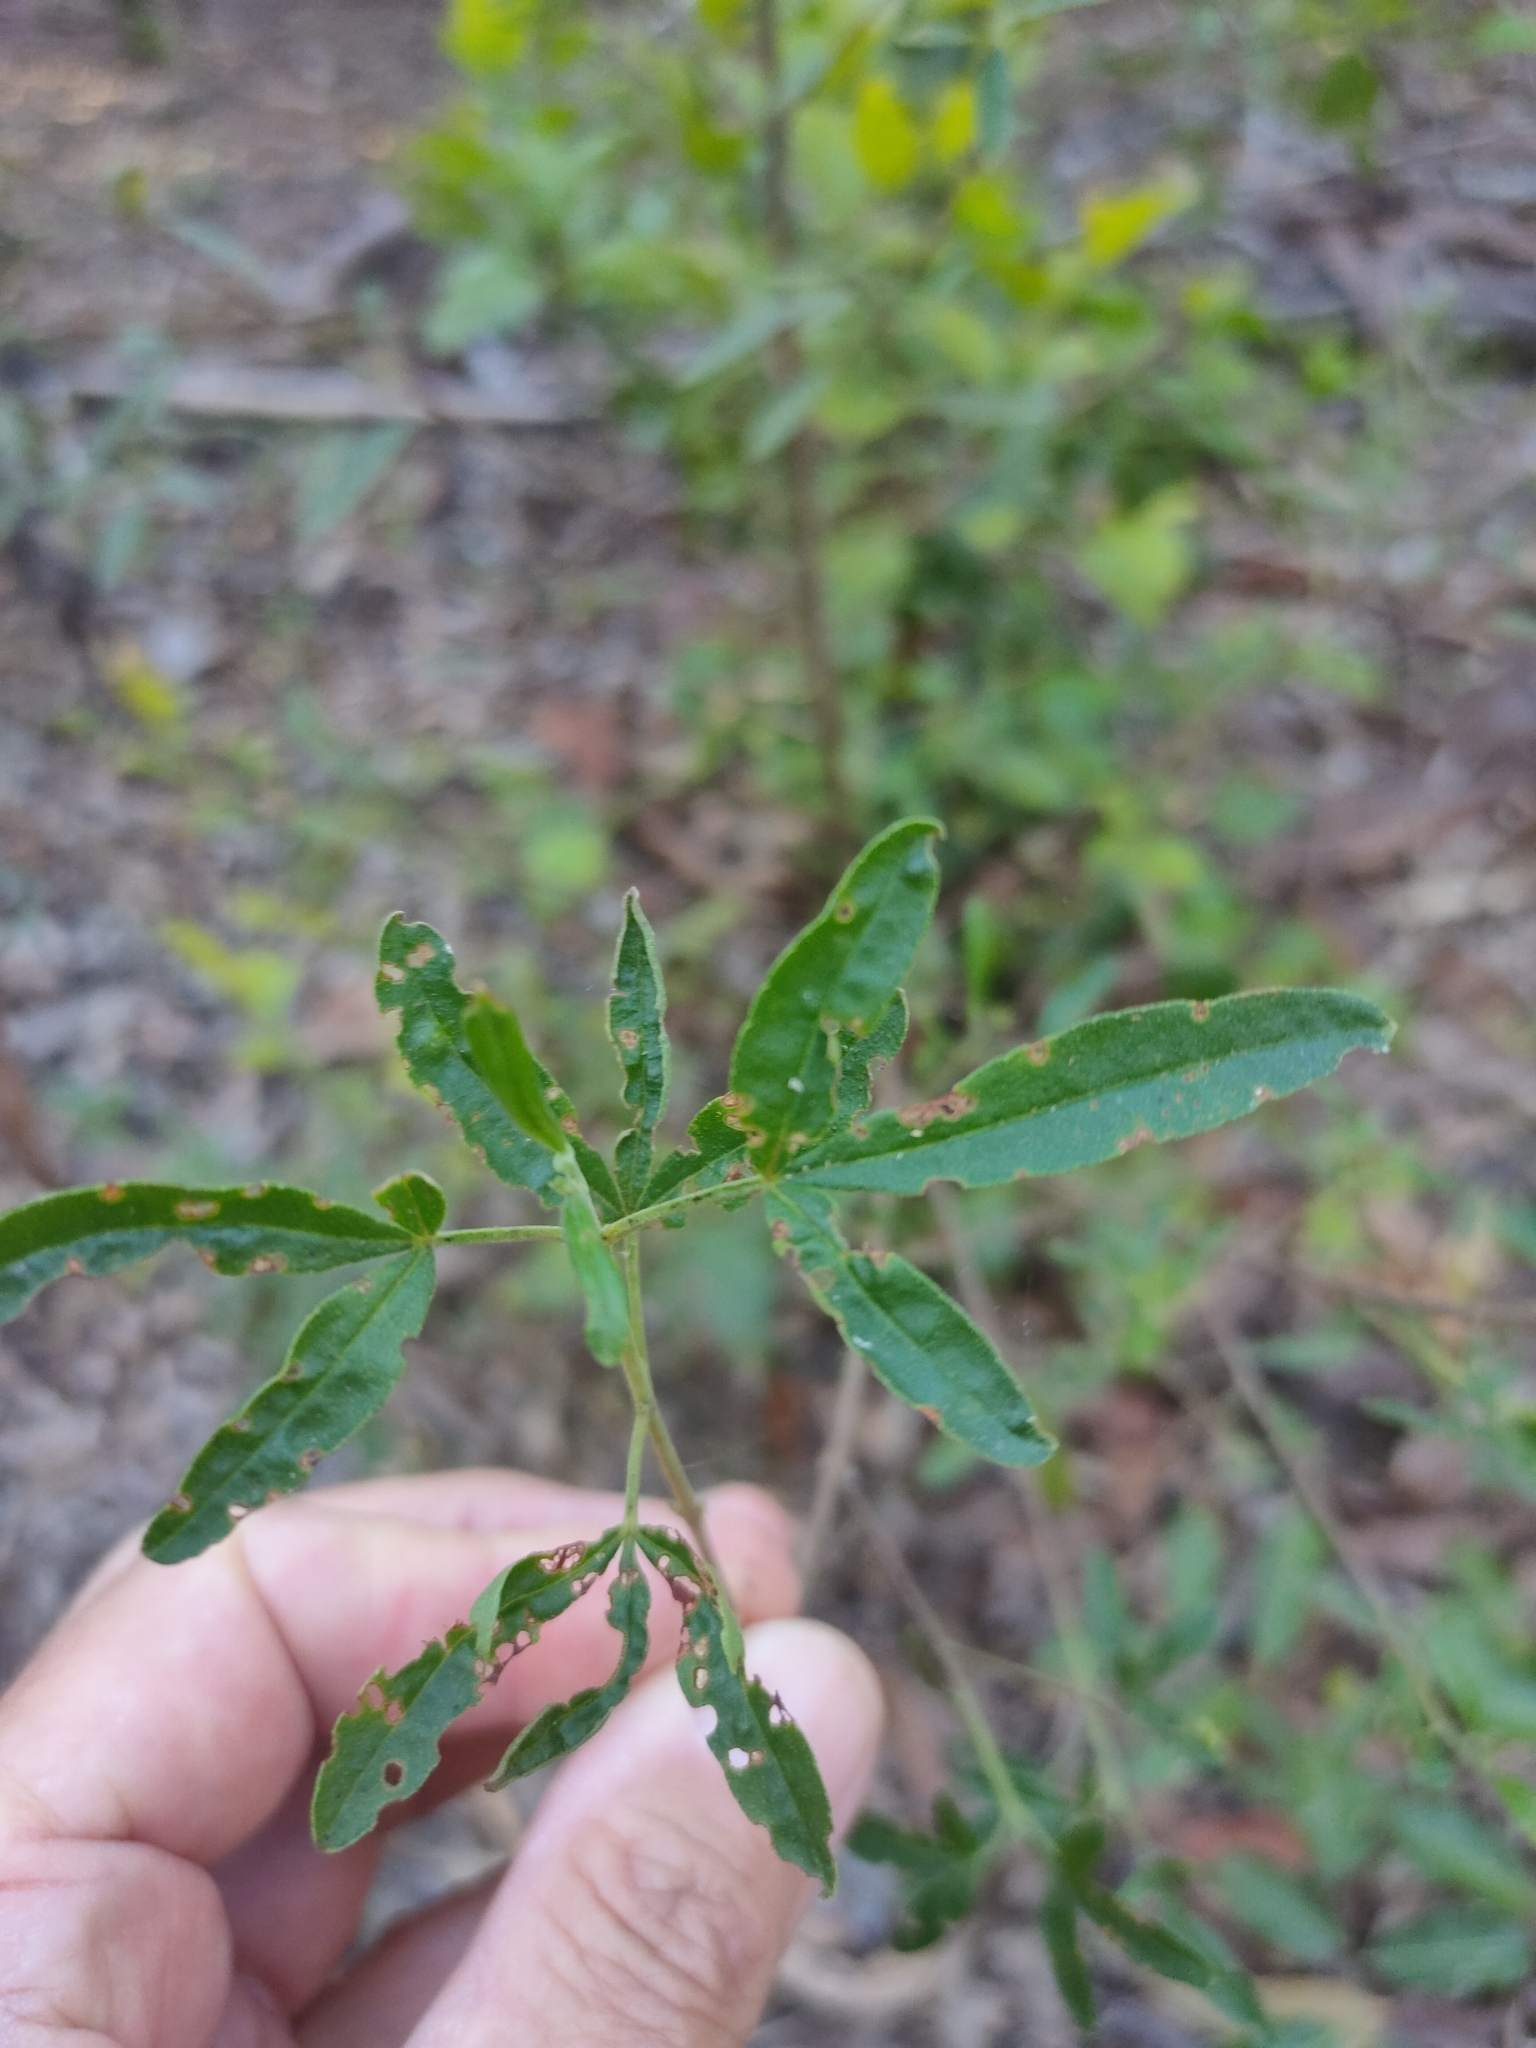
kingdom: Plantae
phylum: Tracheophyta
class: Magnoliopsida
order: Sapindales
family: Rutaceae
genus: Zieria
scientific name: Zieria smithii
